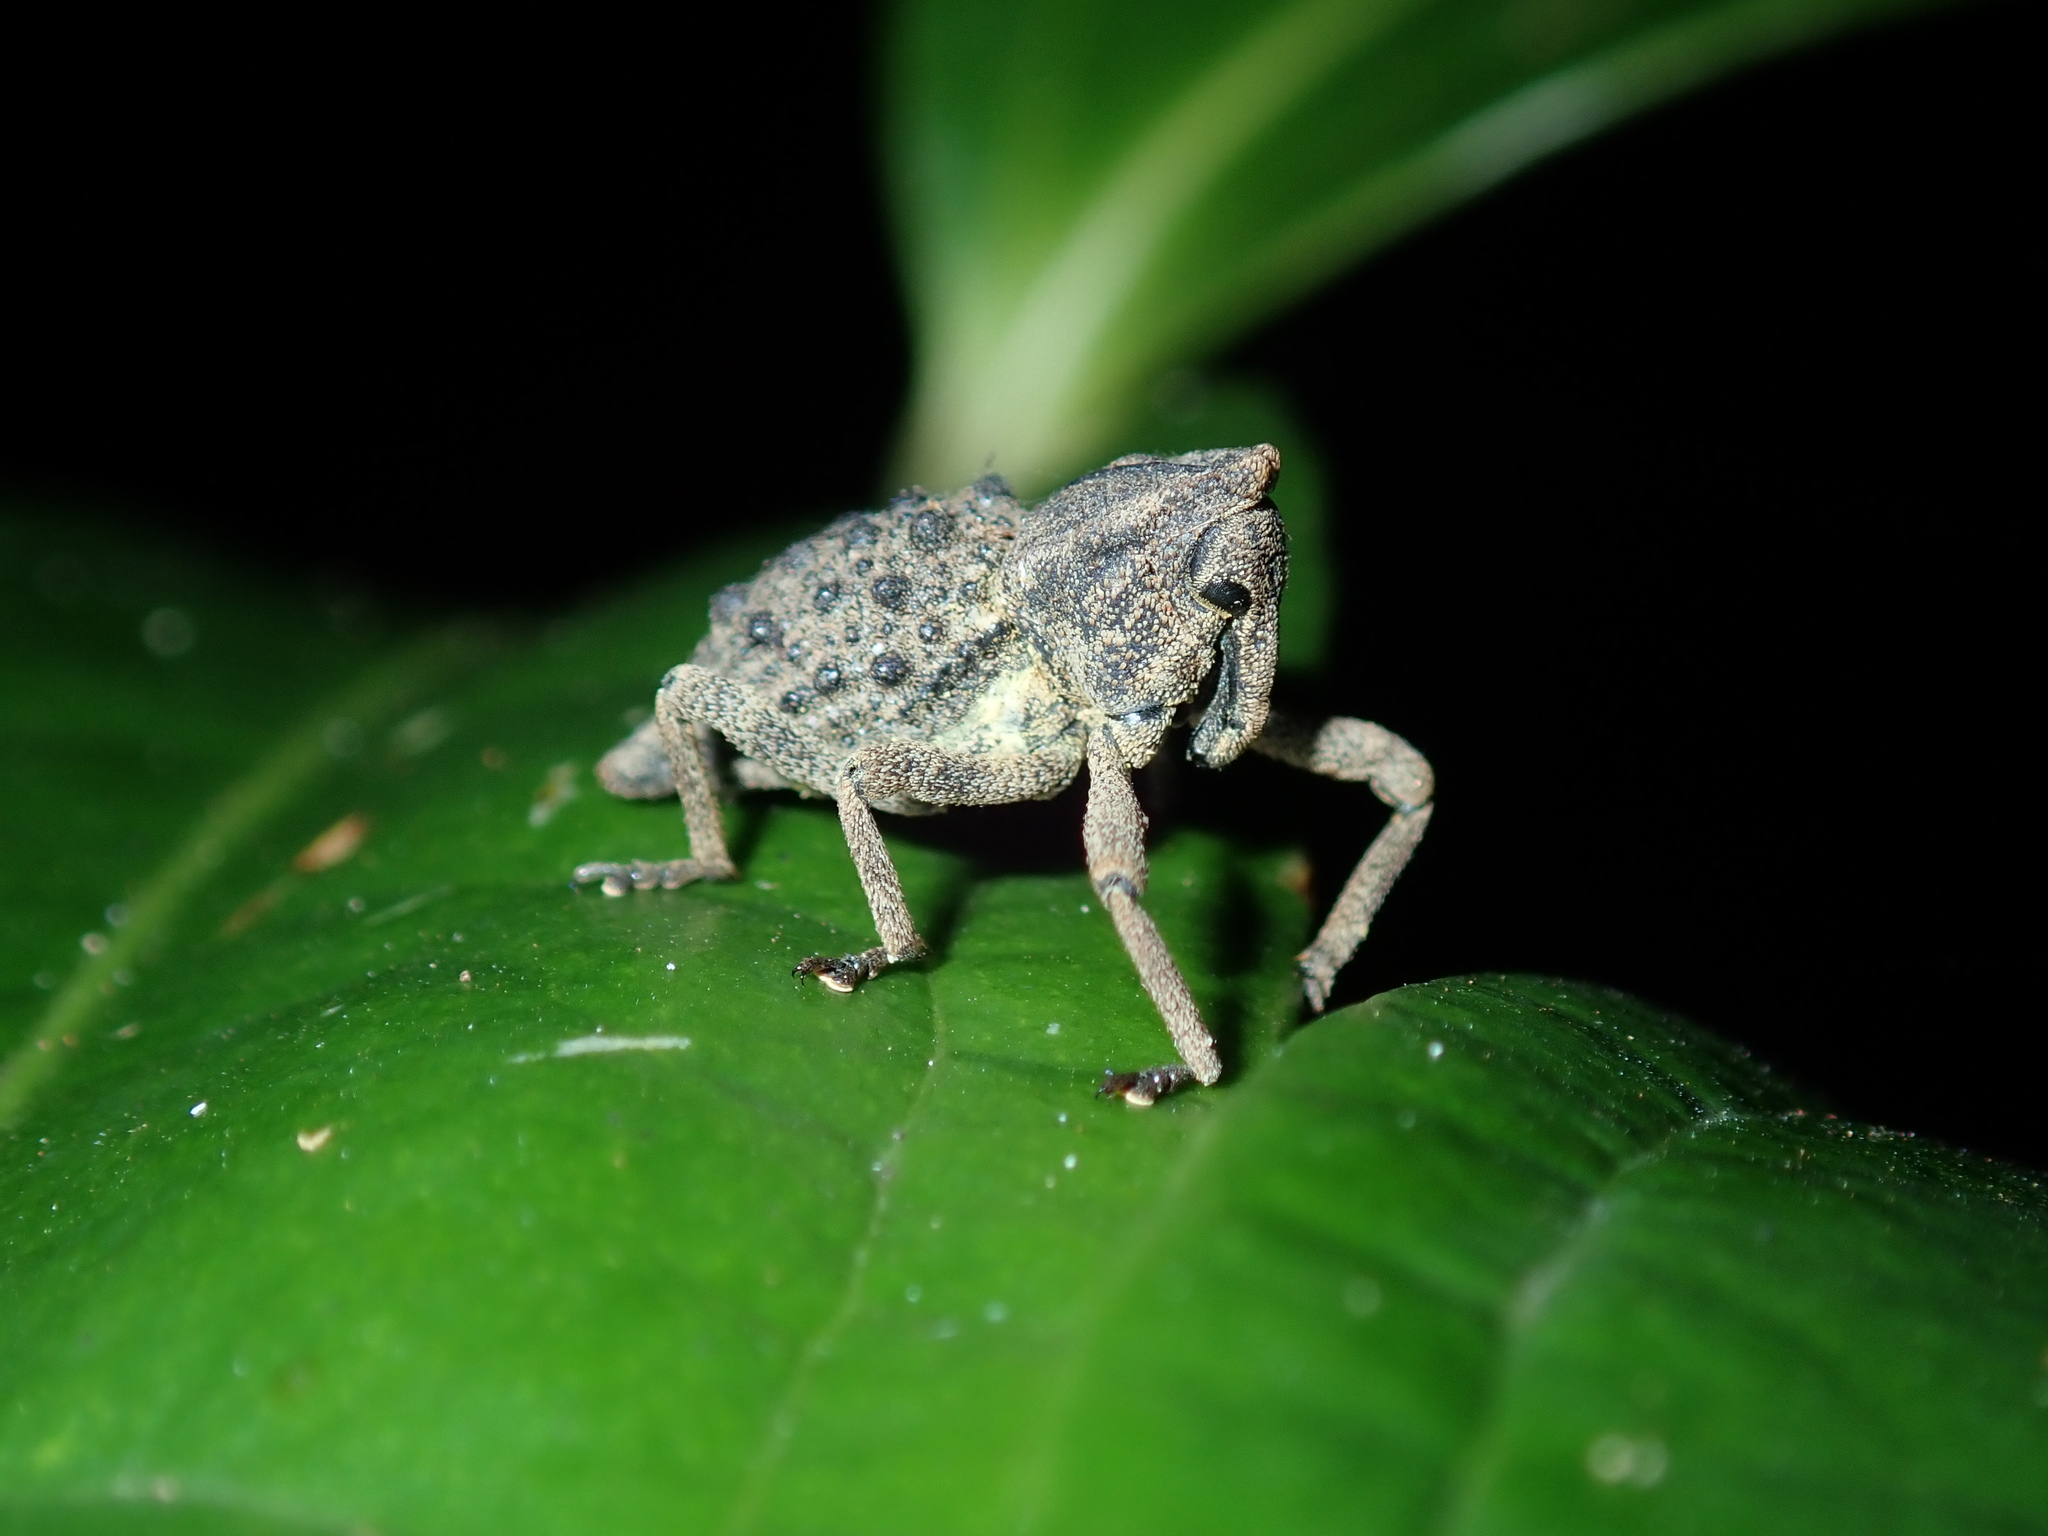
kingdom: Animalia
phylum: Arthropoda
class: Insecta
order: Coleoptera
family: Curculionidae
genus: Poropterus
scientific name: Poropterus ellipticus
